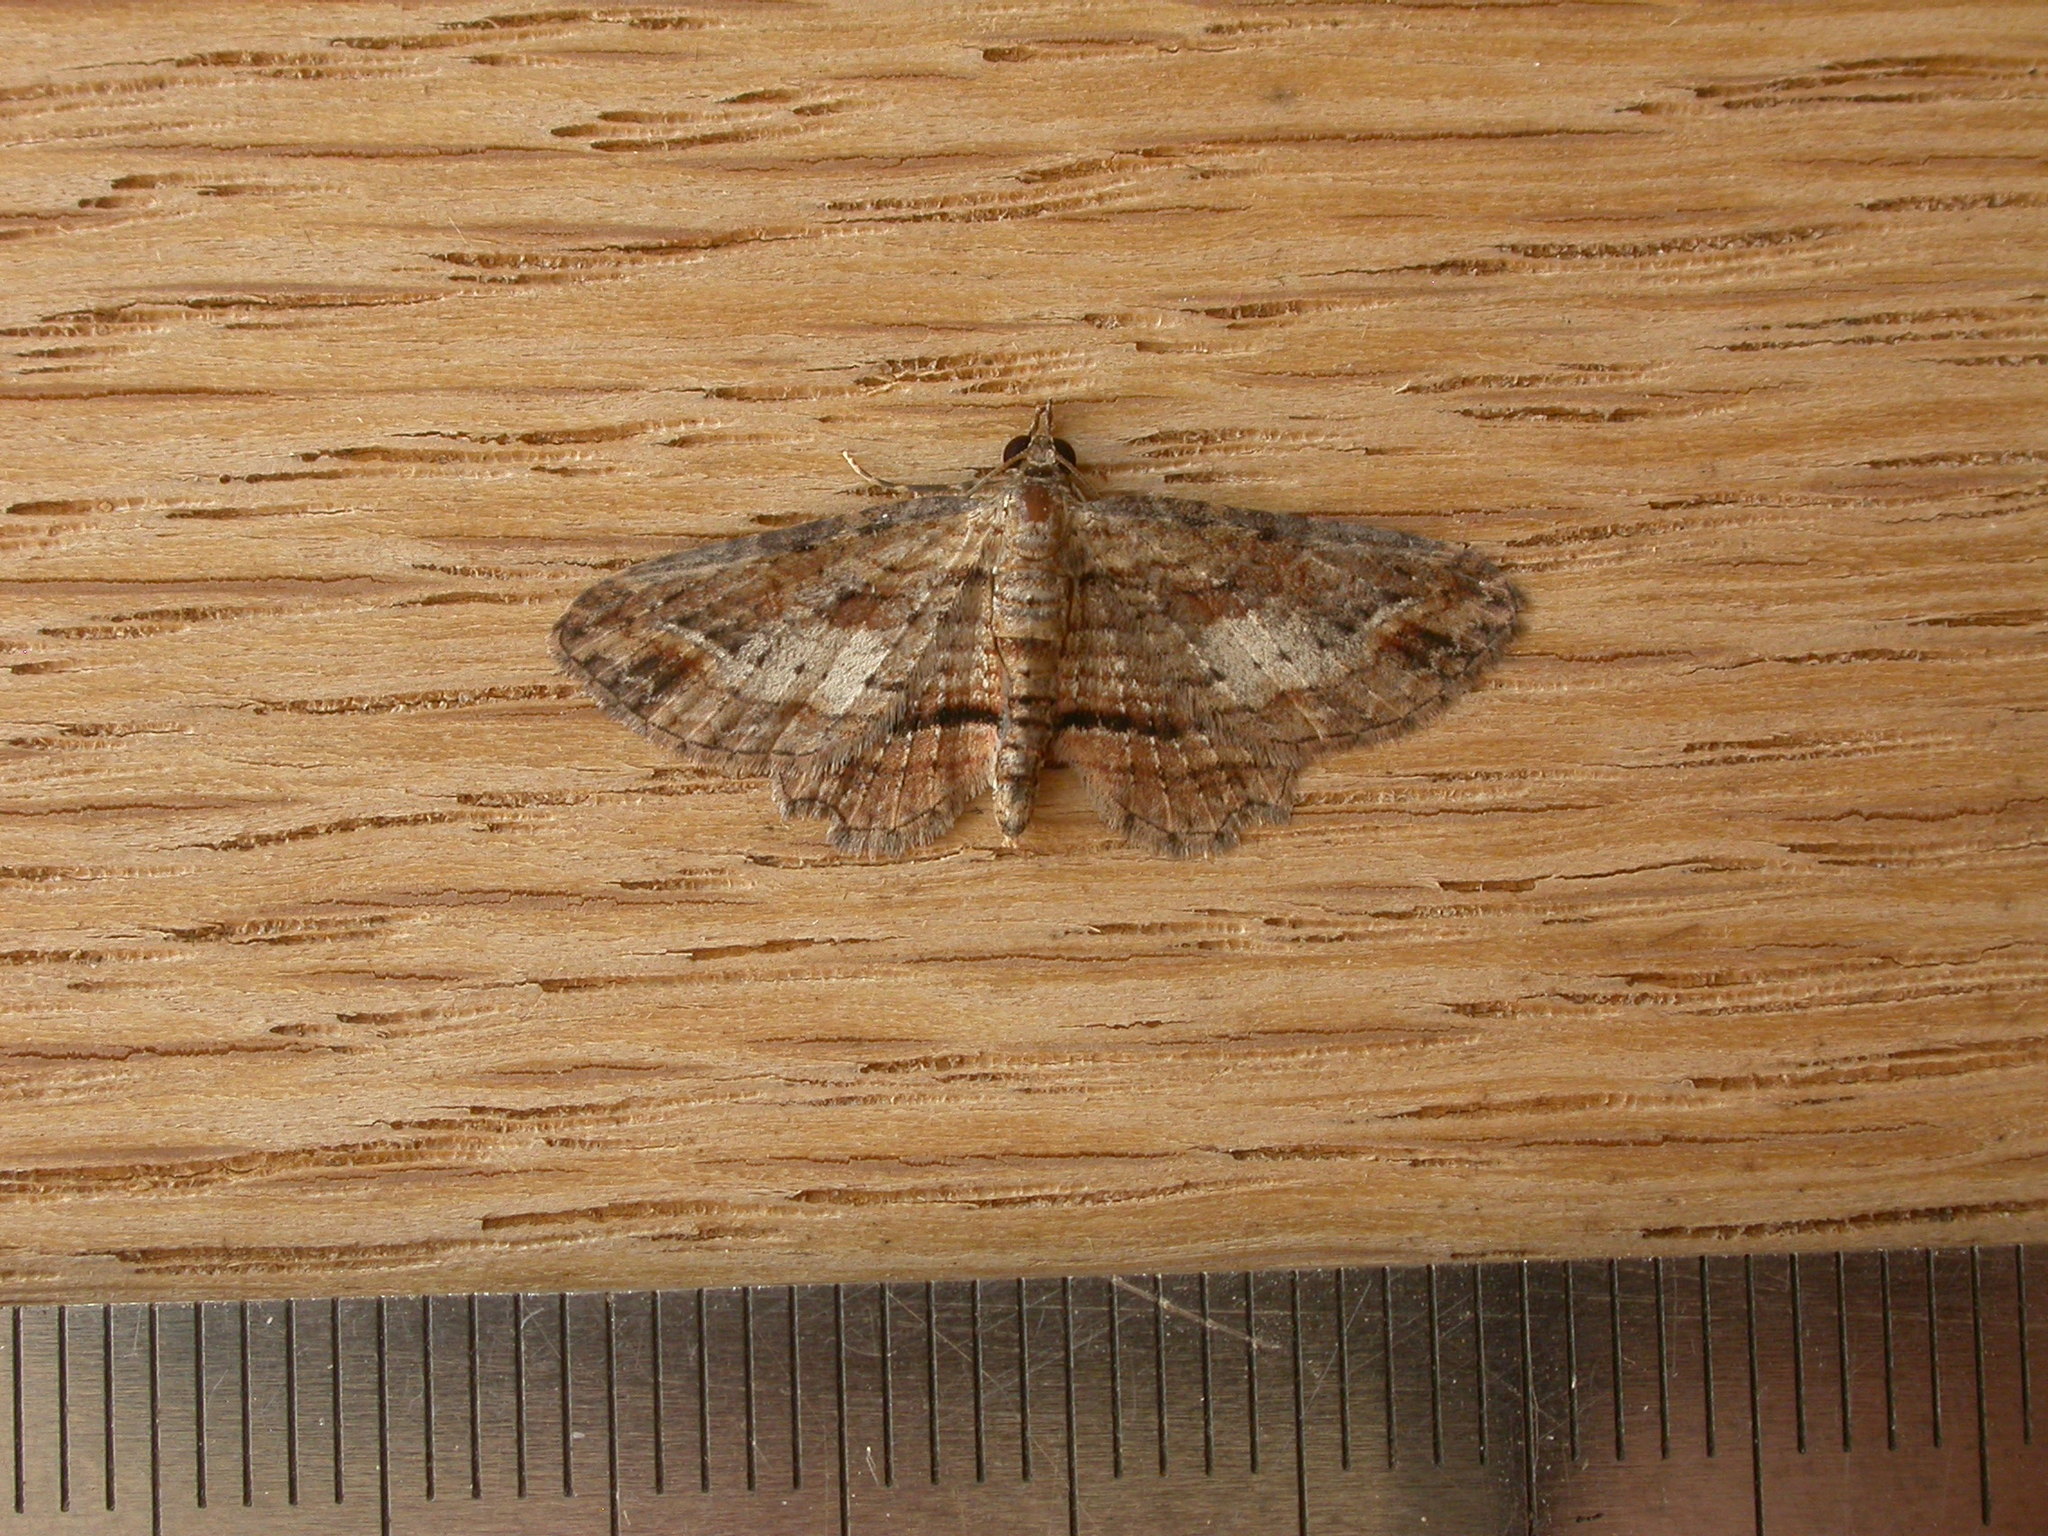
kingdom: Animalia
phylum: Arthropoda
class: Insecta
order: Lepidoptera
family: Geometridae
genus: Chloroclystis
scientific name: Chloroclystis filata
